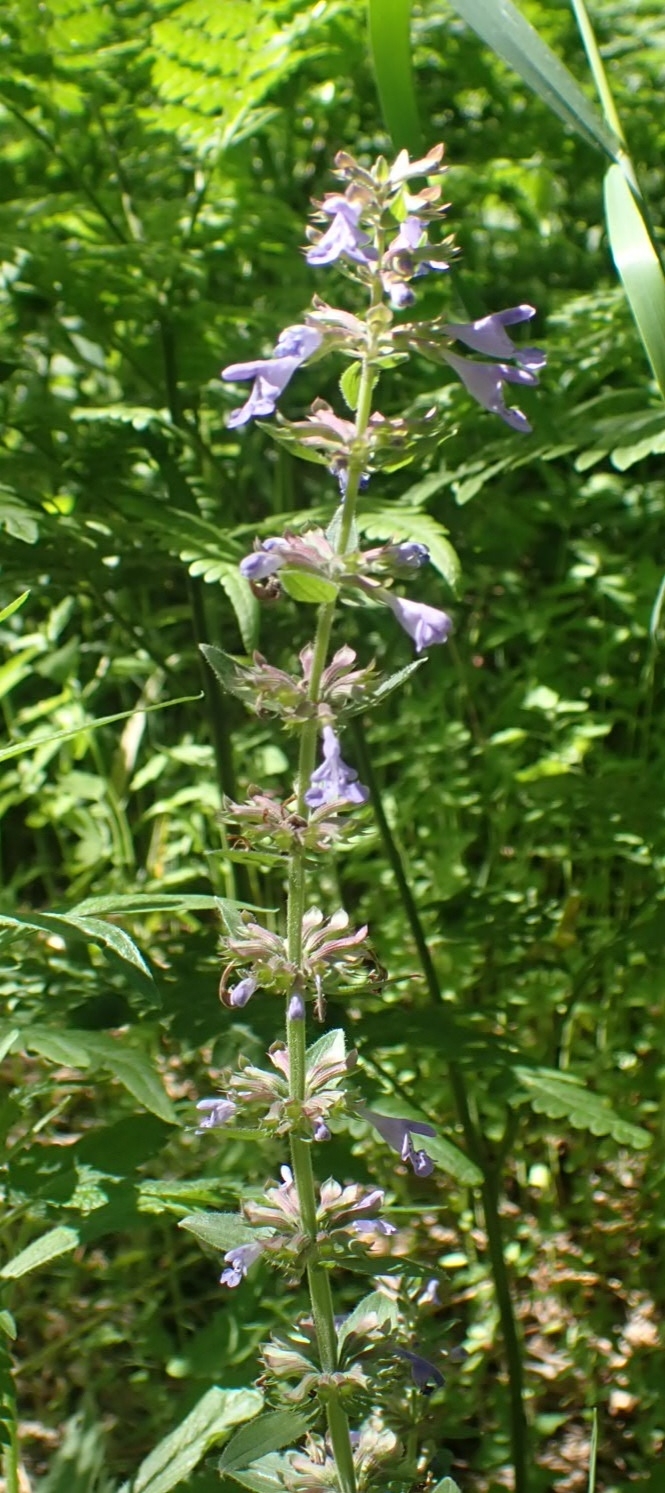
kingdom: Plantae
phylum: Tracheophyta
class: Magnoliopsida
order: Lamiales
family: Lamiaceae
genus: Dracocephalum
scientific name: Dracocephalum nutans
